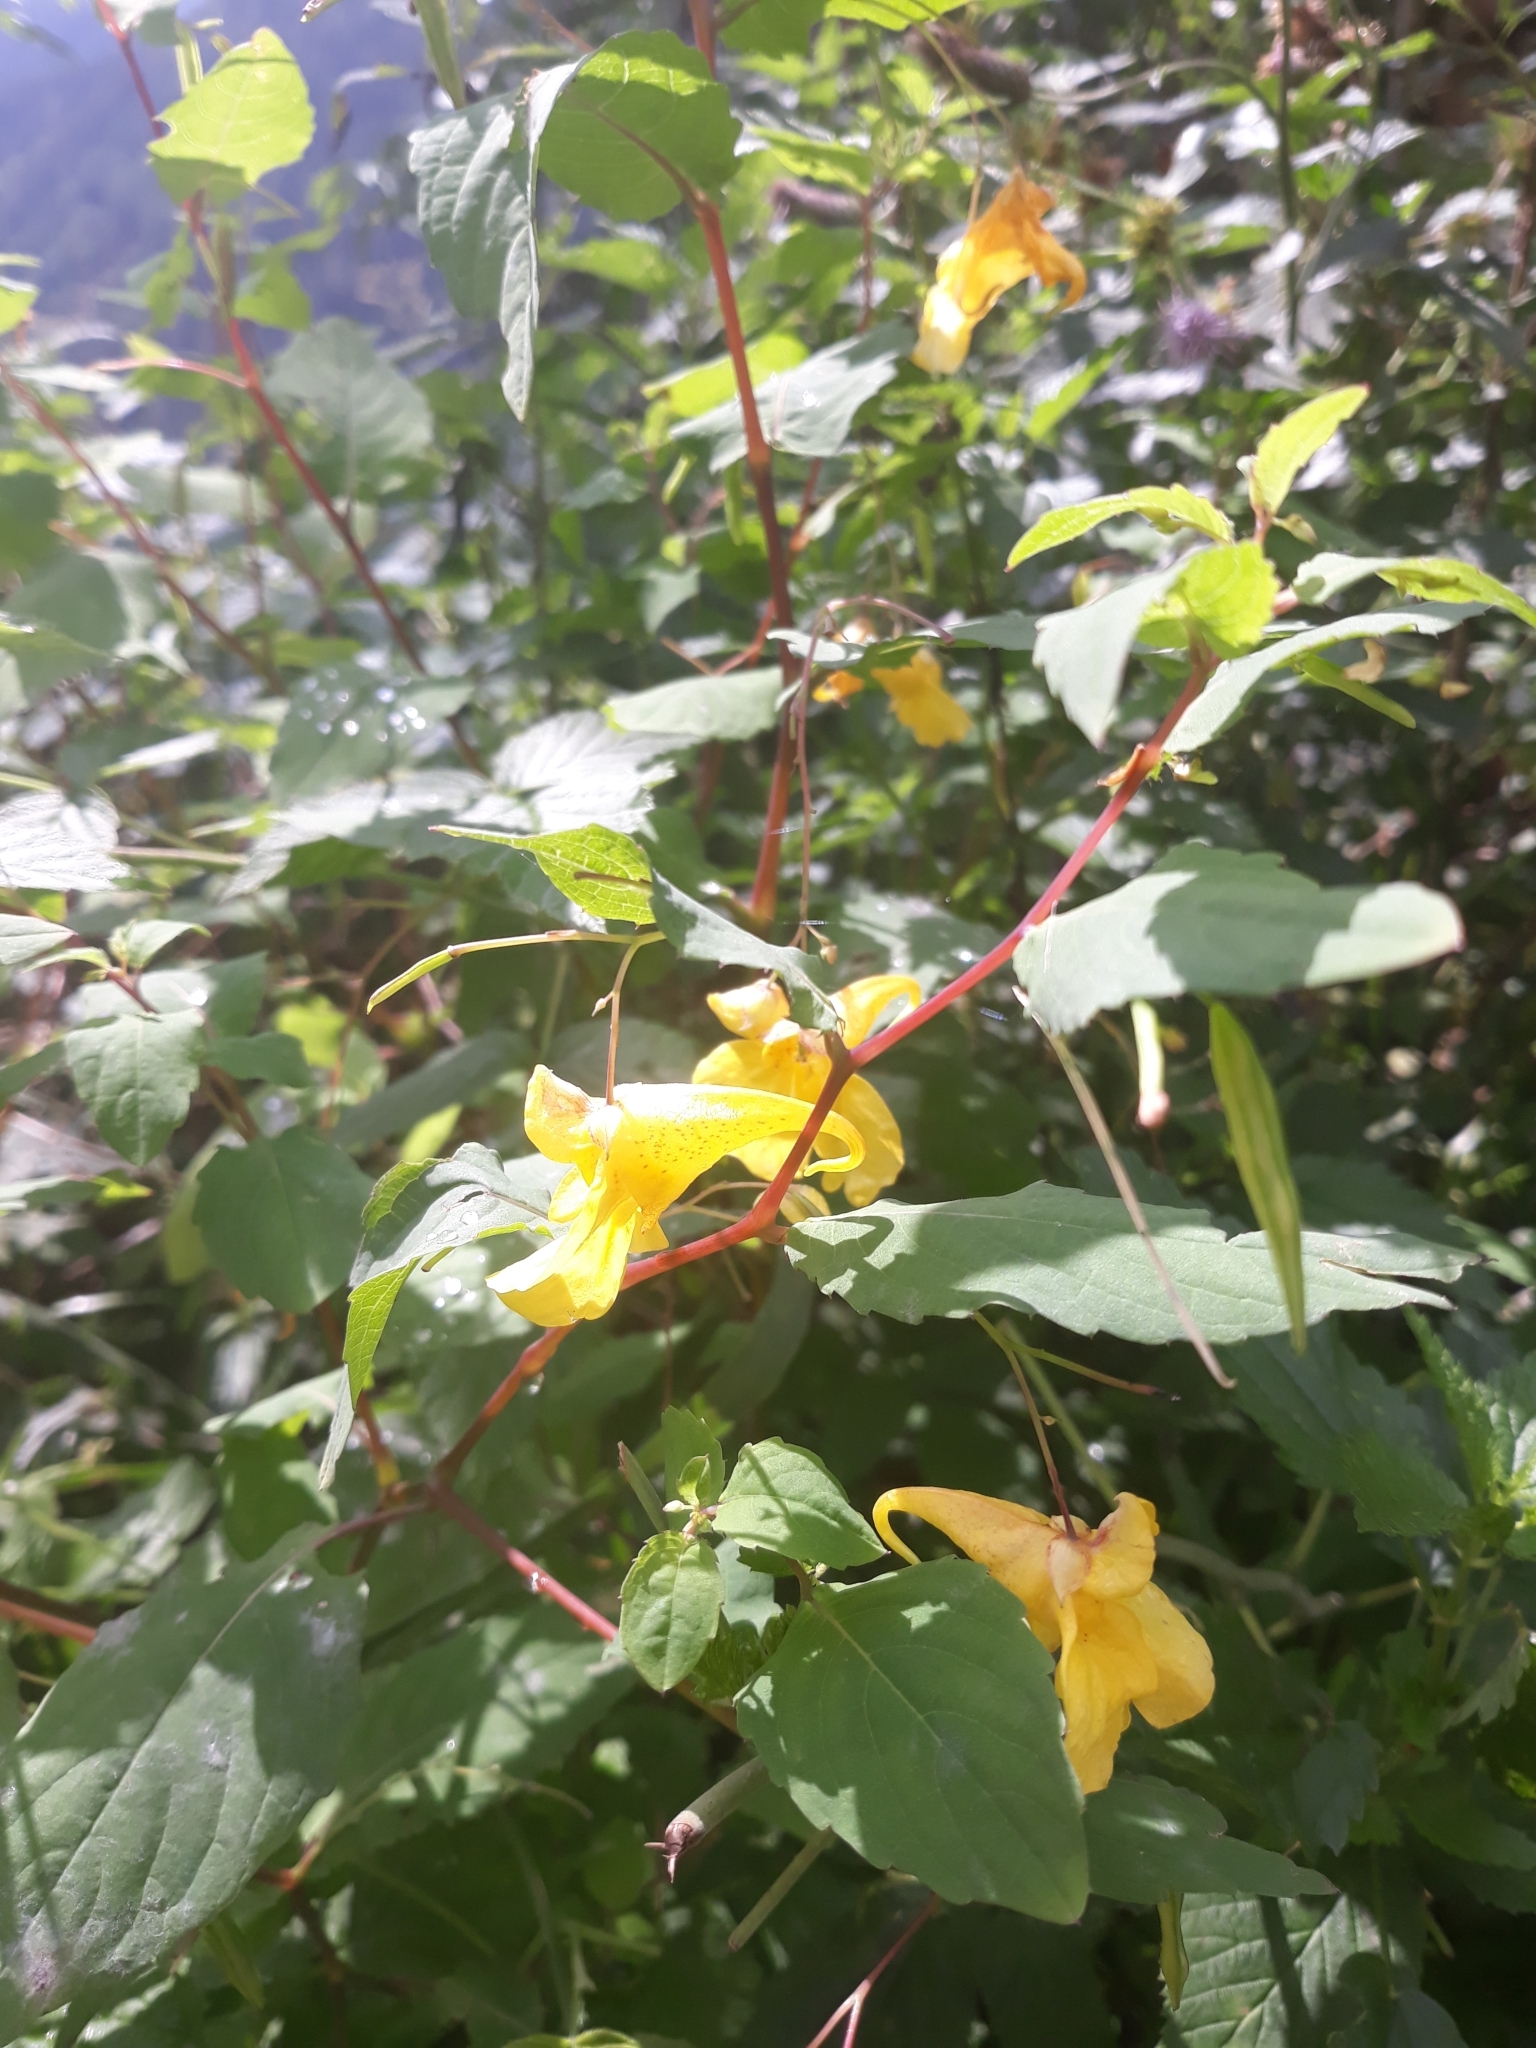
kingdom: Plantae
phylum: Tracheophyta
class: Magnoliopsida
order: Ericales
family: Balsaminaceae
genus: Impatiens
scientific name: Impatiens noli-tangere
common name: Touch-me-not balsam
